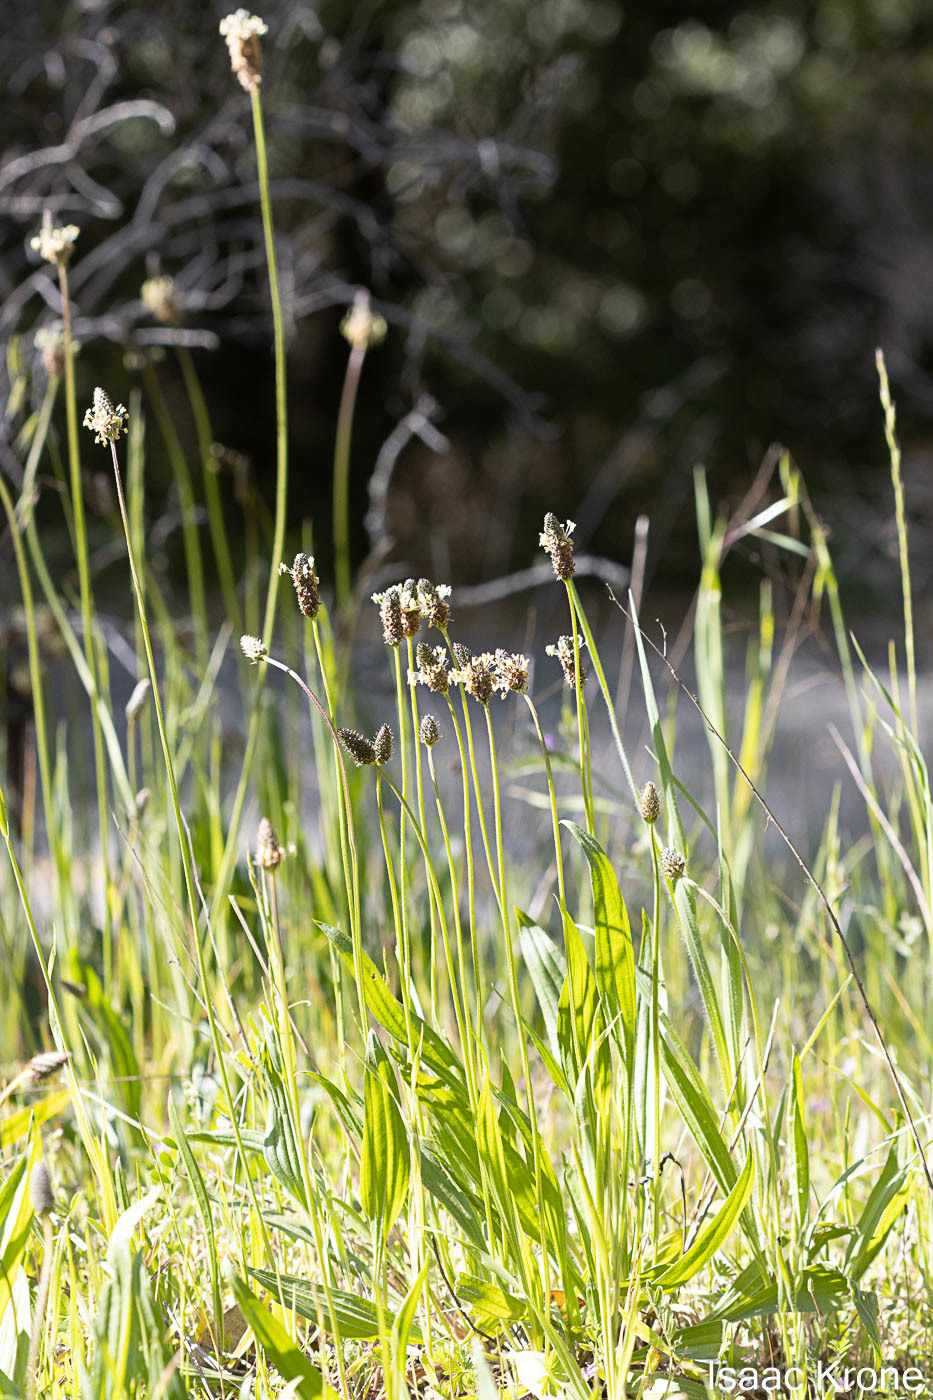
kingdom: Plantae
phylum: Tracheophyta
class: Magnoliopsida
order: Lamiales
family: Plantaginaceae
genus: Plantago
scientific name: Plantago lanceolata
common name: Ribwort plantain
